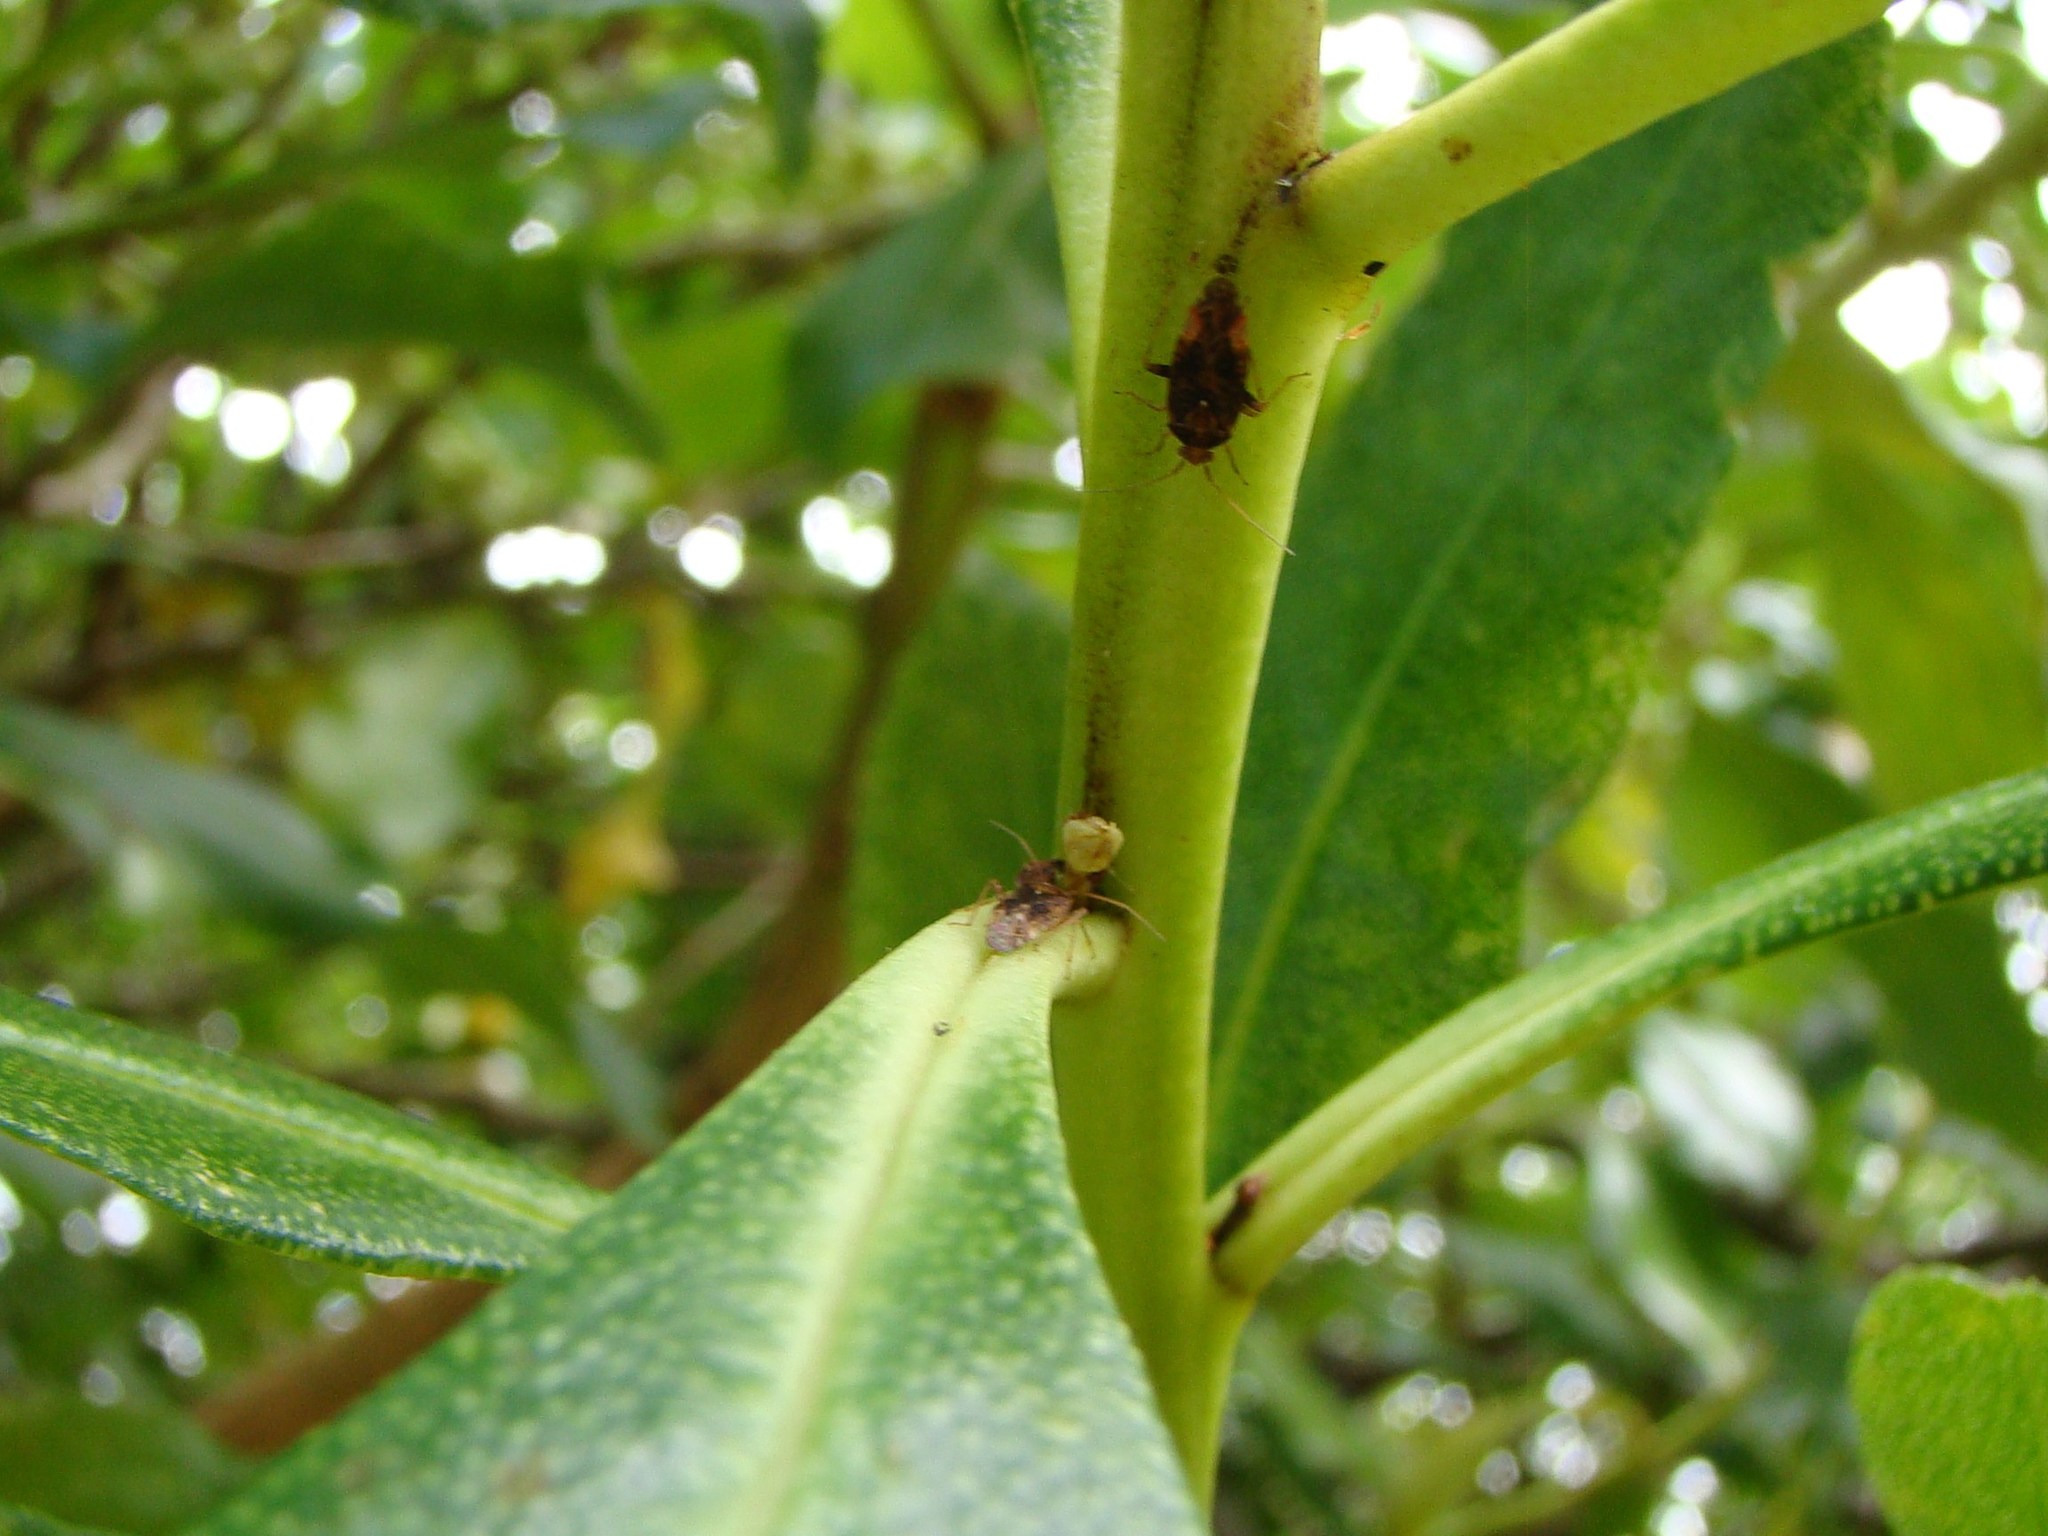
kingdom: Animalia
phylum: Arthropoda
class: Insecta
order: Hemiptera
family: Miridae
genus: Chinamiris
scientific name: Chinamiris aurantiacus
